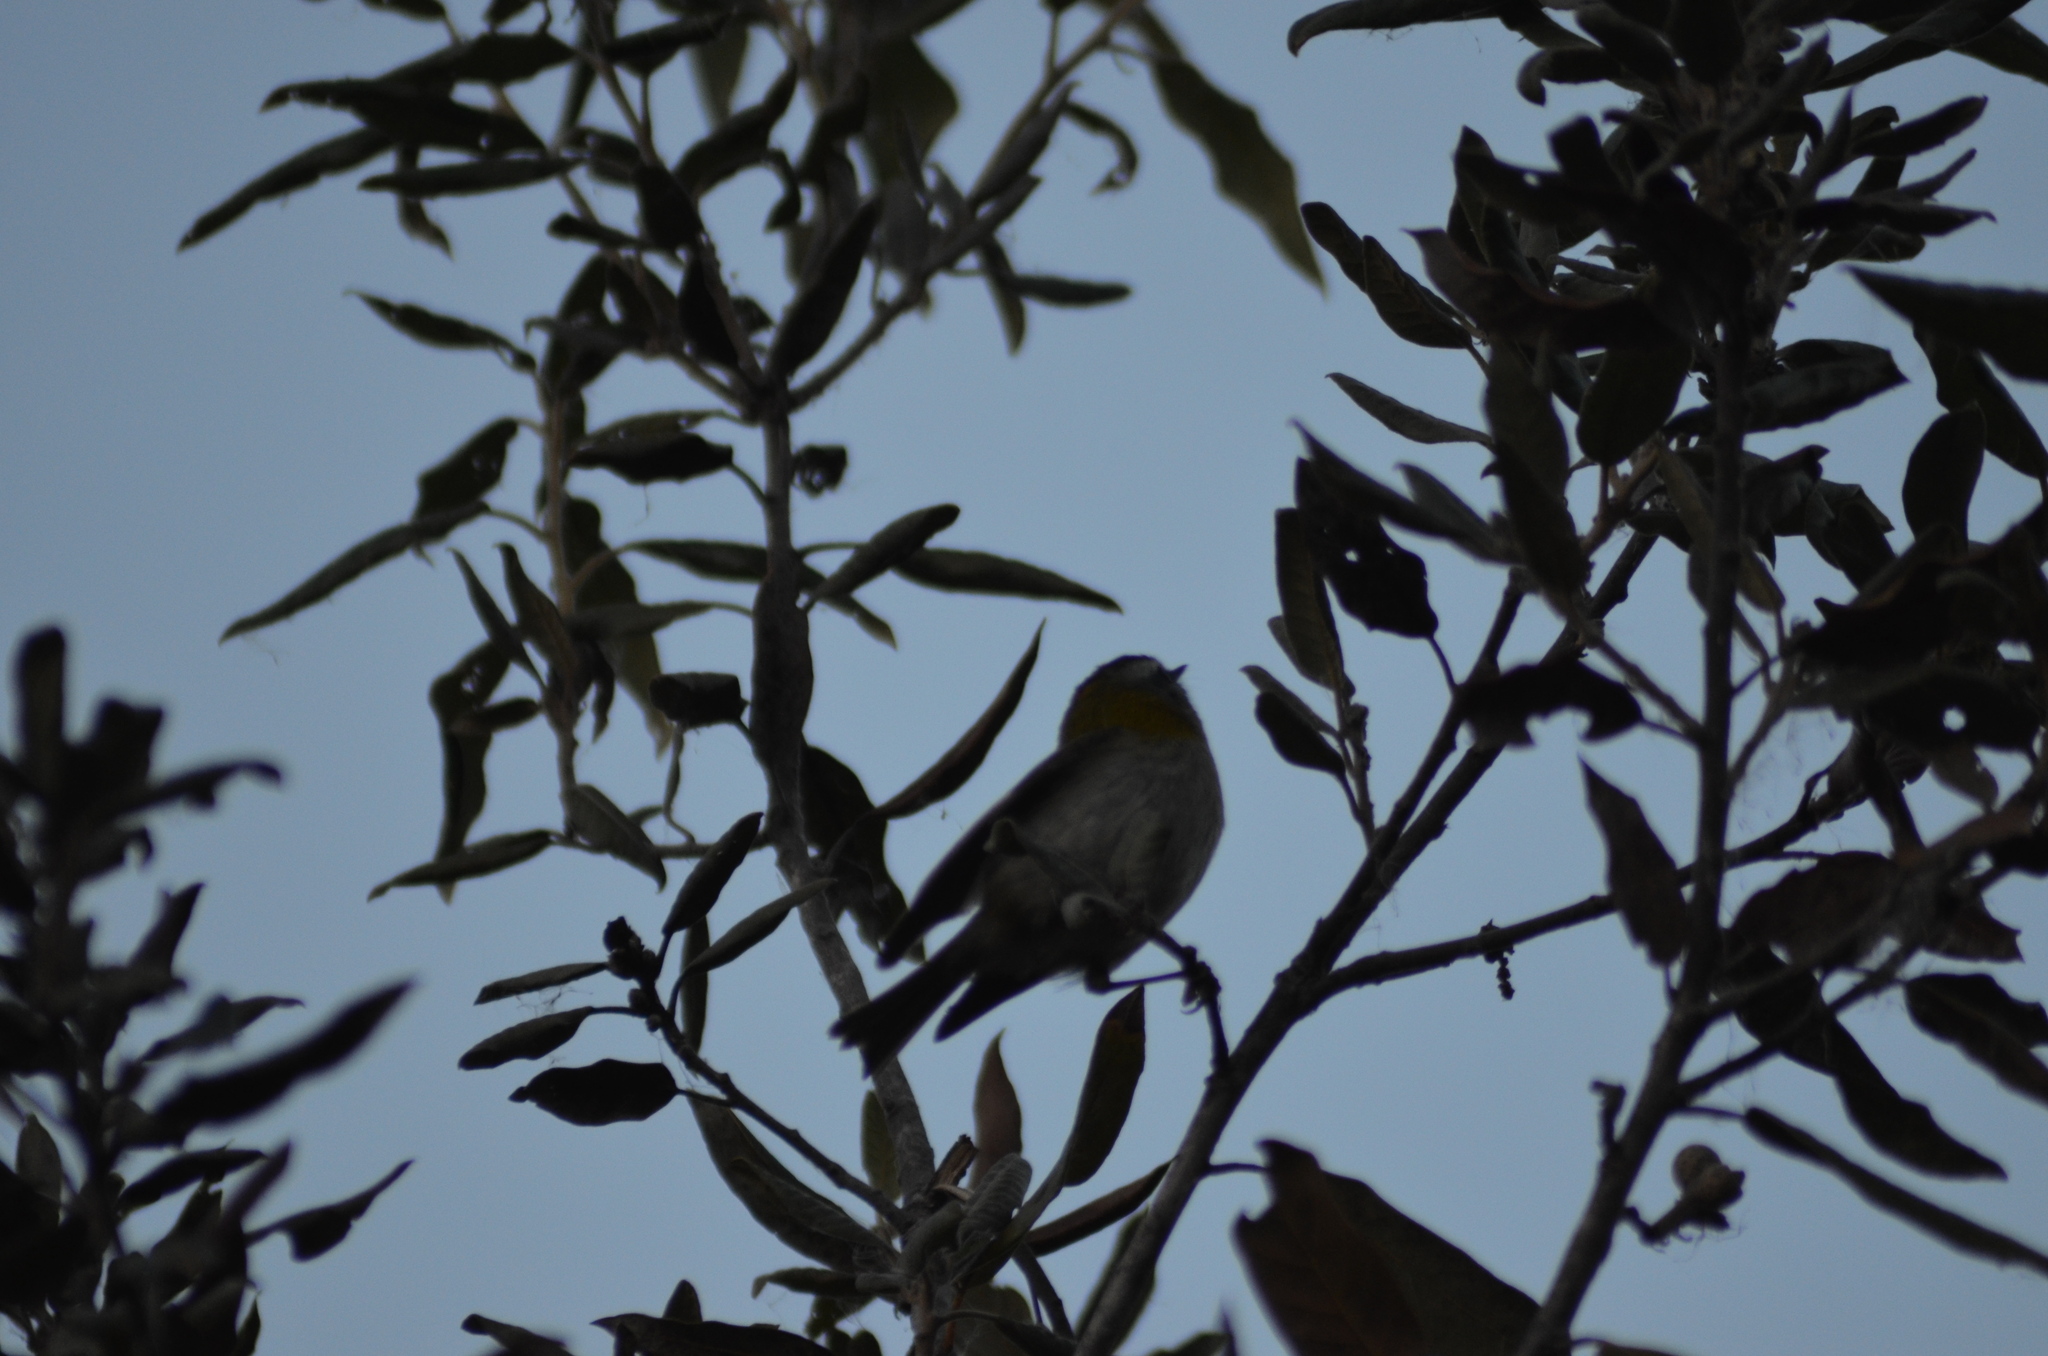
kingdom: Animalia
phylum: Chordata
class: Aves
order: Passeriformes
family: Regulidae
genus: Regulus
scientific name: Regulus ignicapilla
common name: Firecrest
